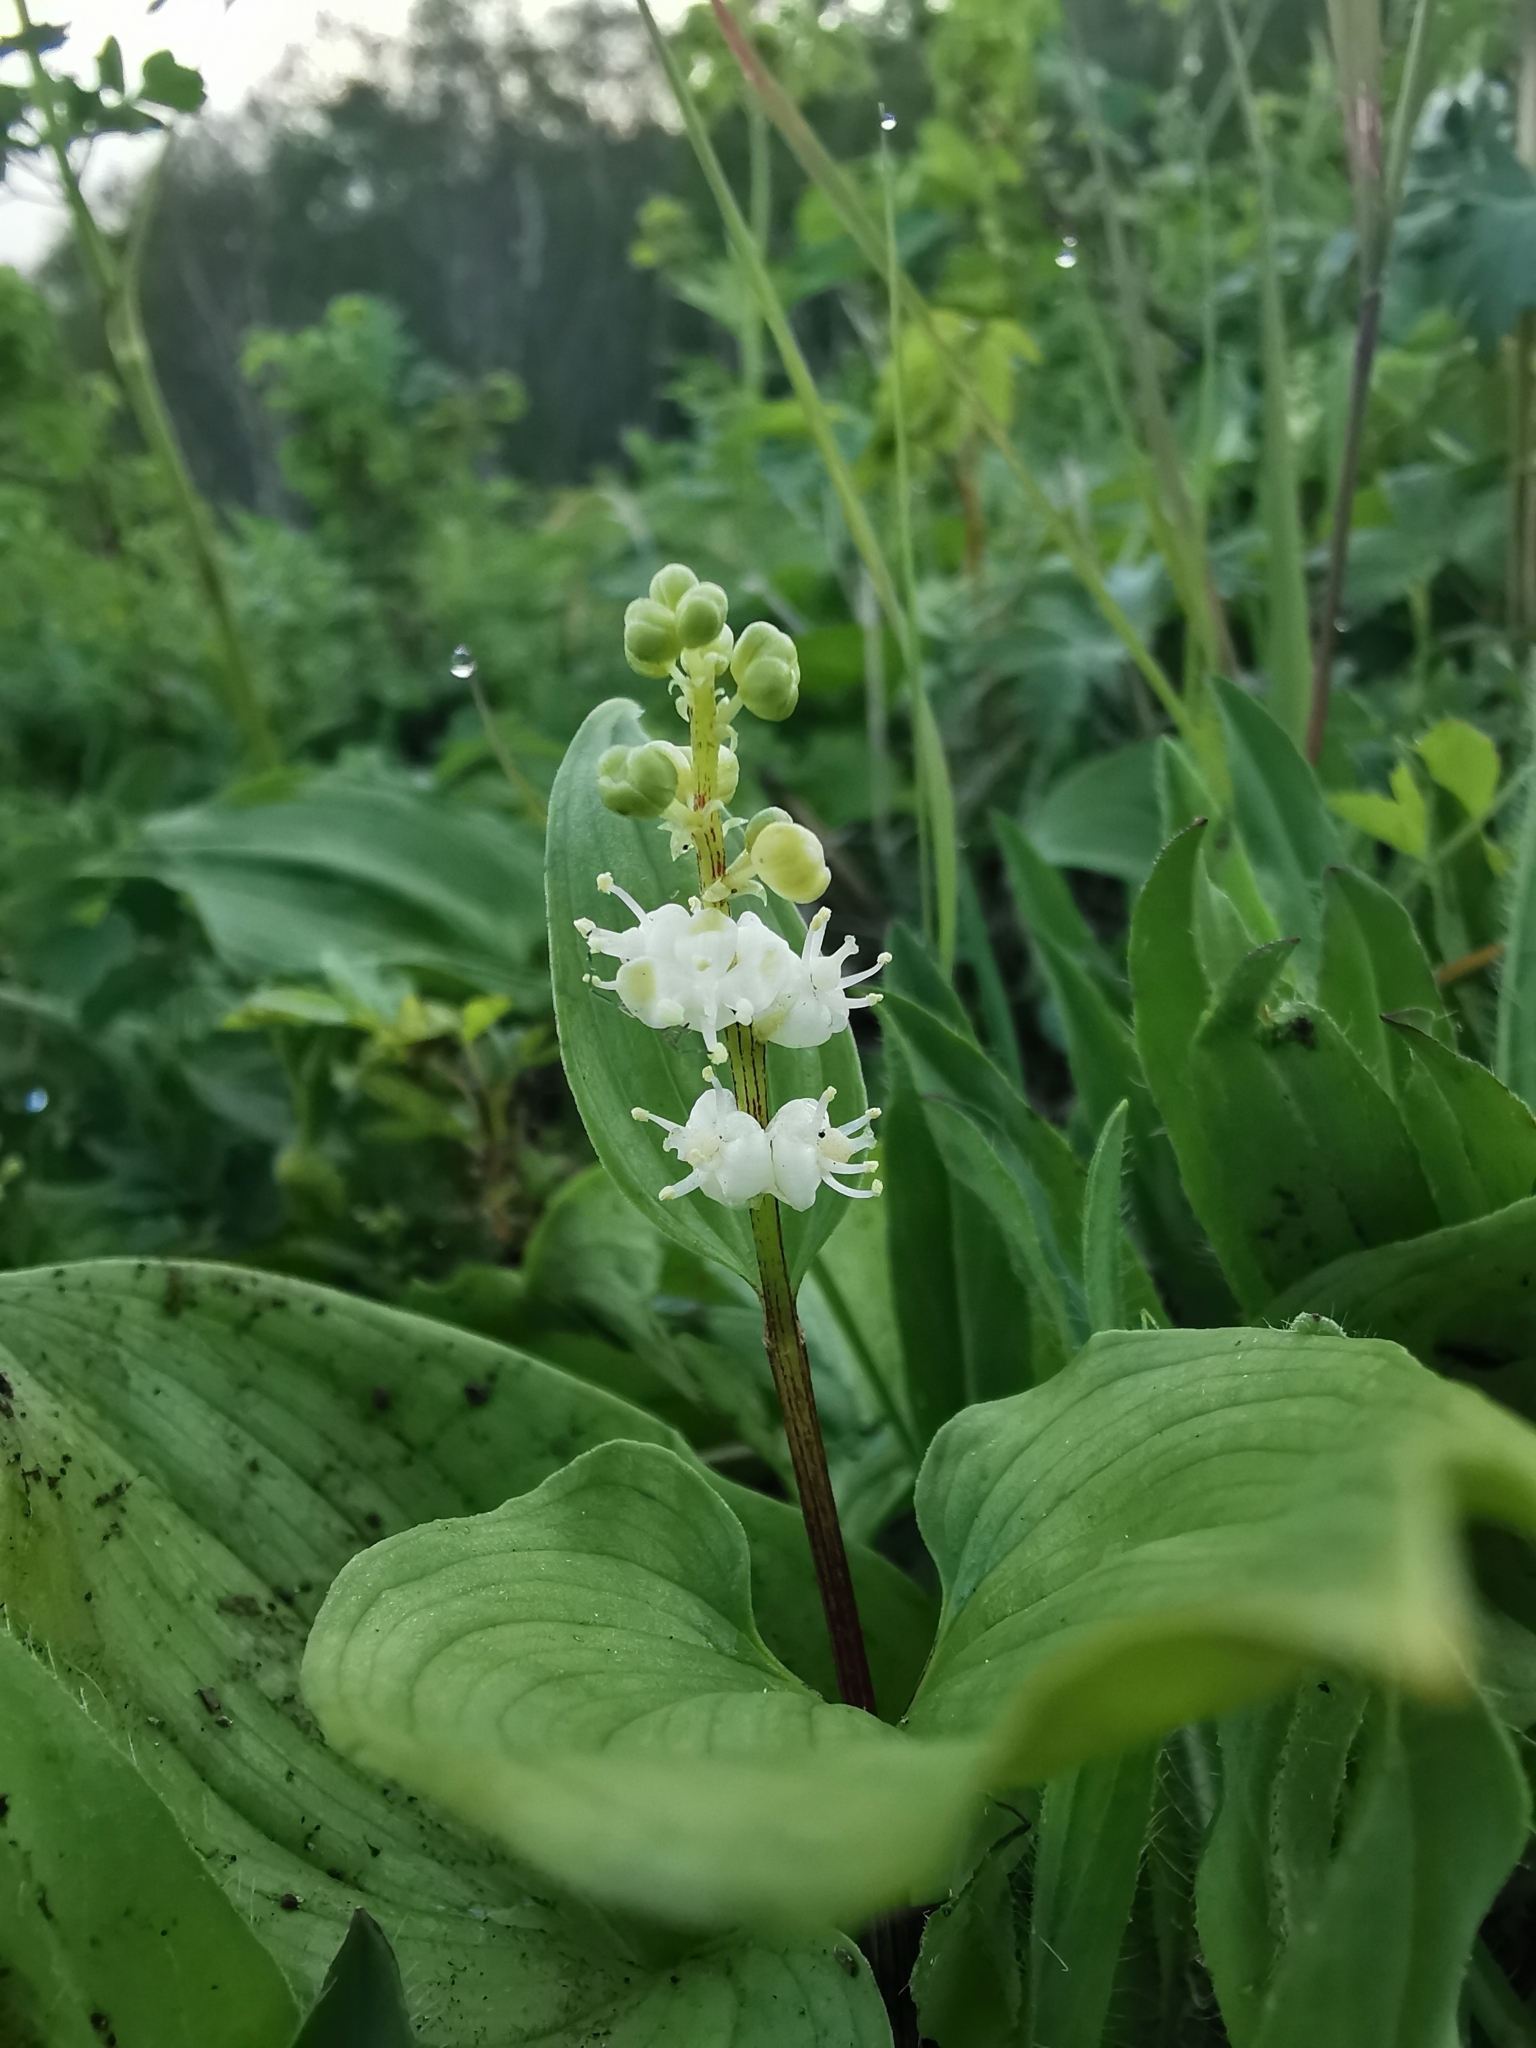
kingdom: Plantae
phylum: Tracheophyta
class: Liliopsida
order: Asparagales
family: Asparagaceae
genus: Maianthemum
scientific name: Maianthemum dilatatum
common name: False lily-of-the-valley
